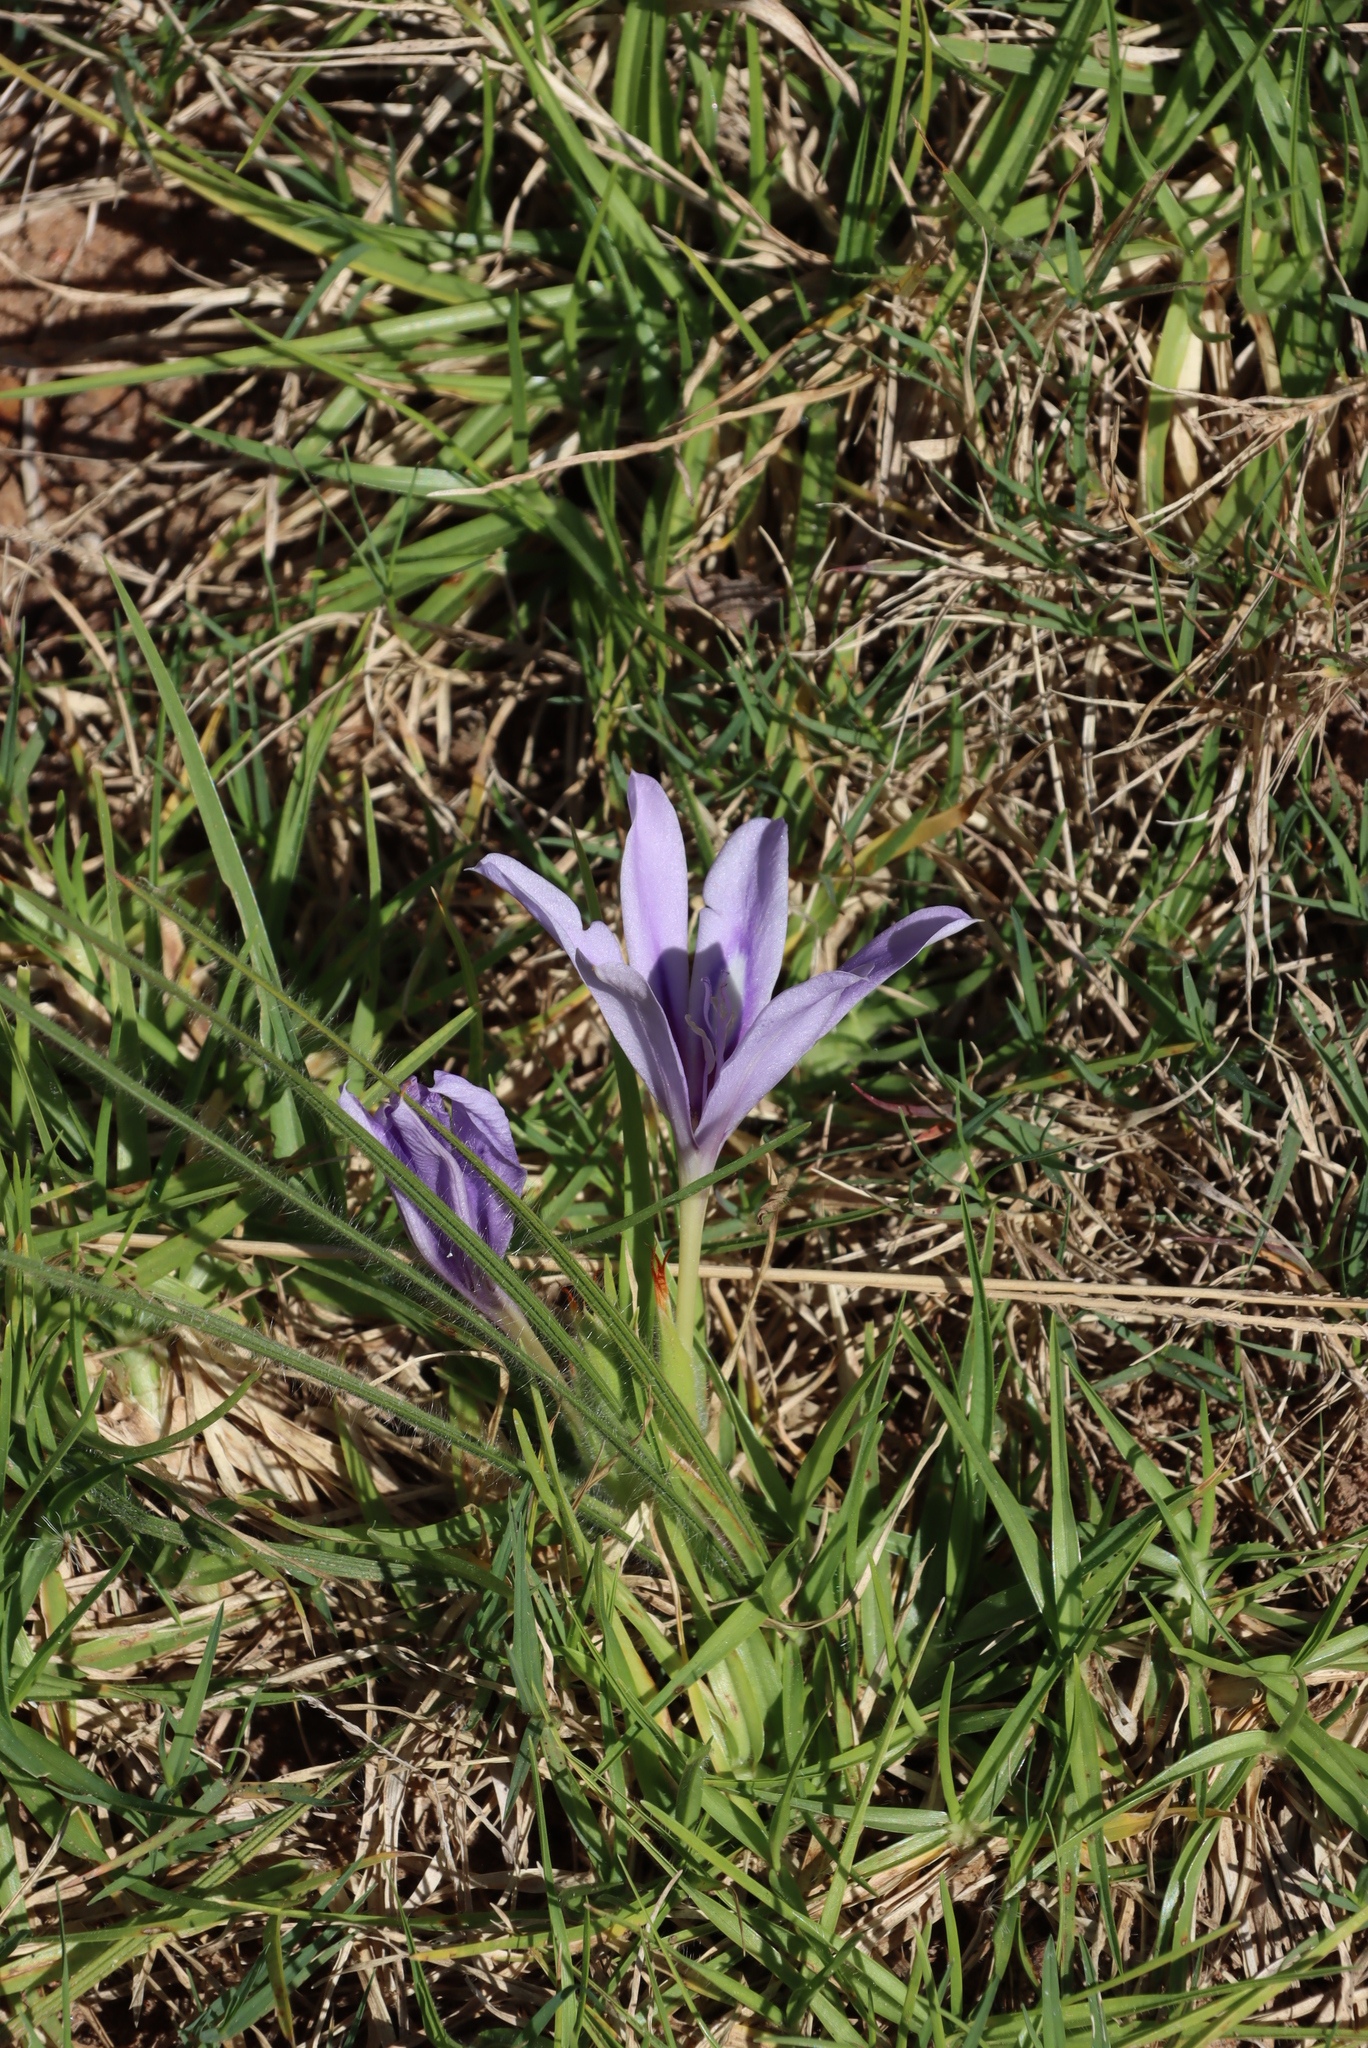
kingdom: Plantae
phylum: Tracheophyta
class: Liliopsida
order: Asparagales
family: Iridaceae
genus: Babiana
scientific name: Babiana sambucina
